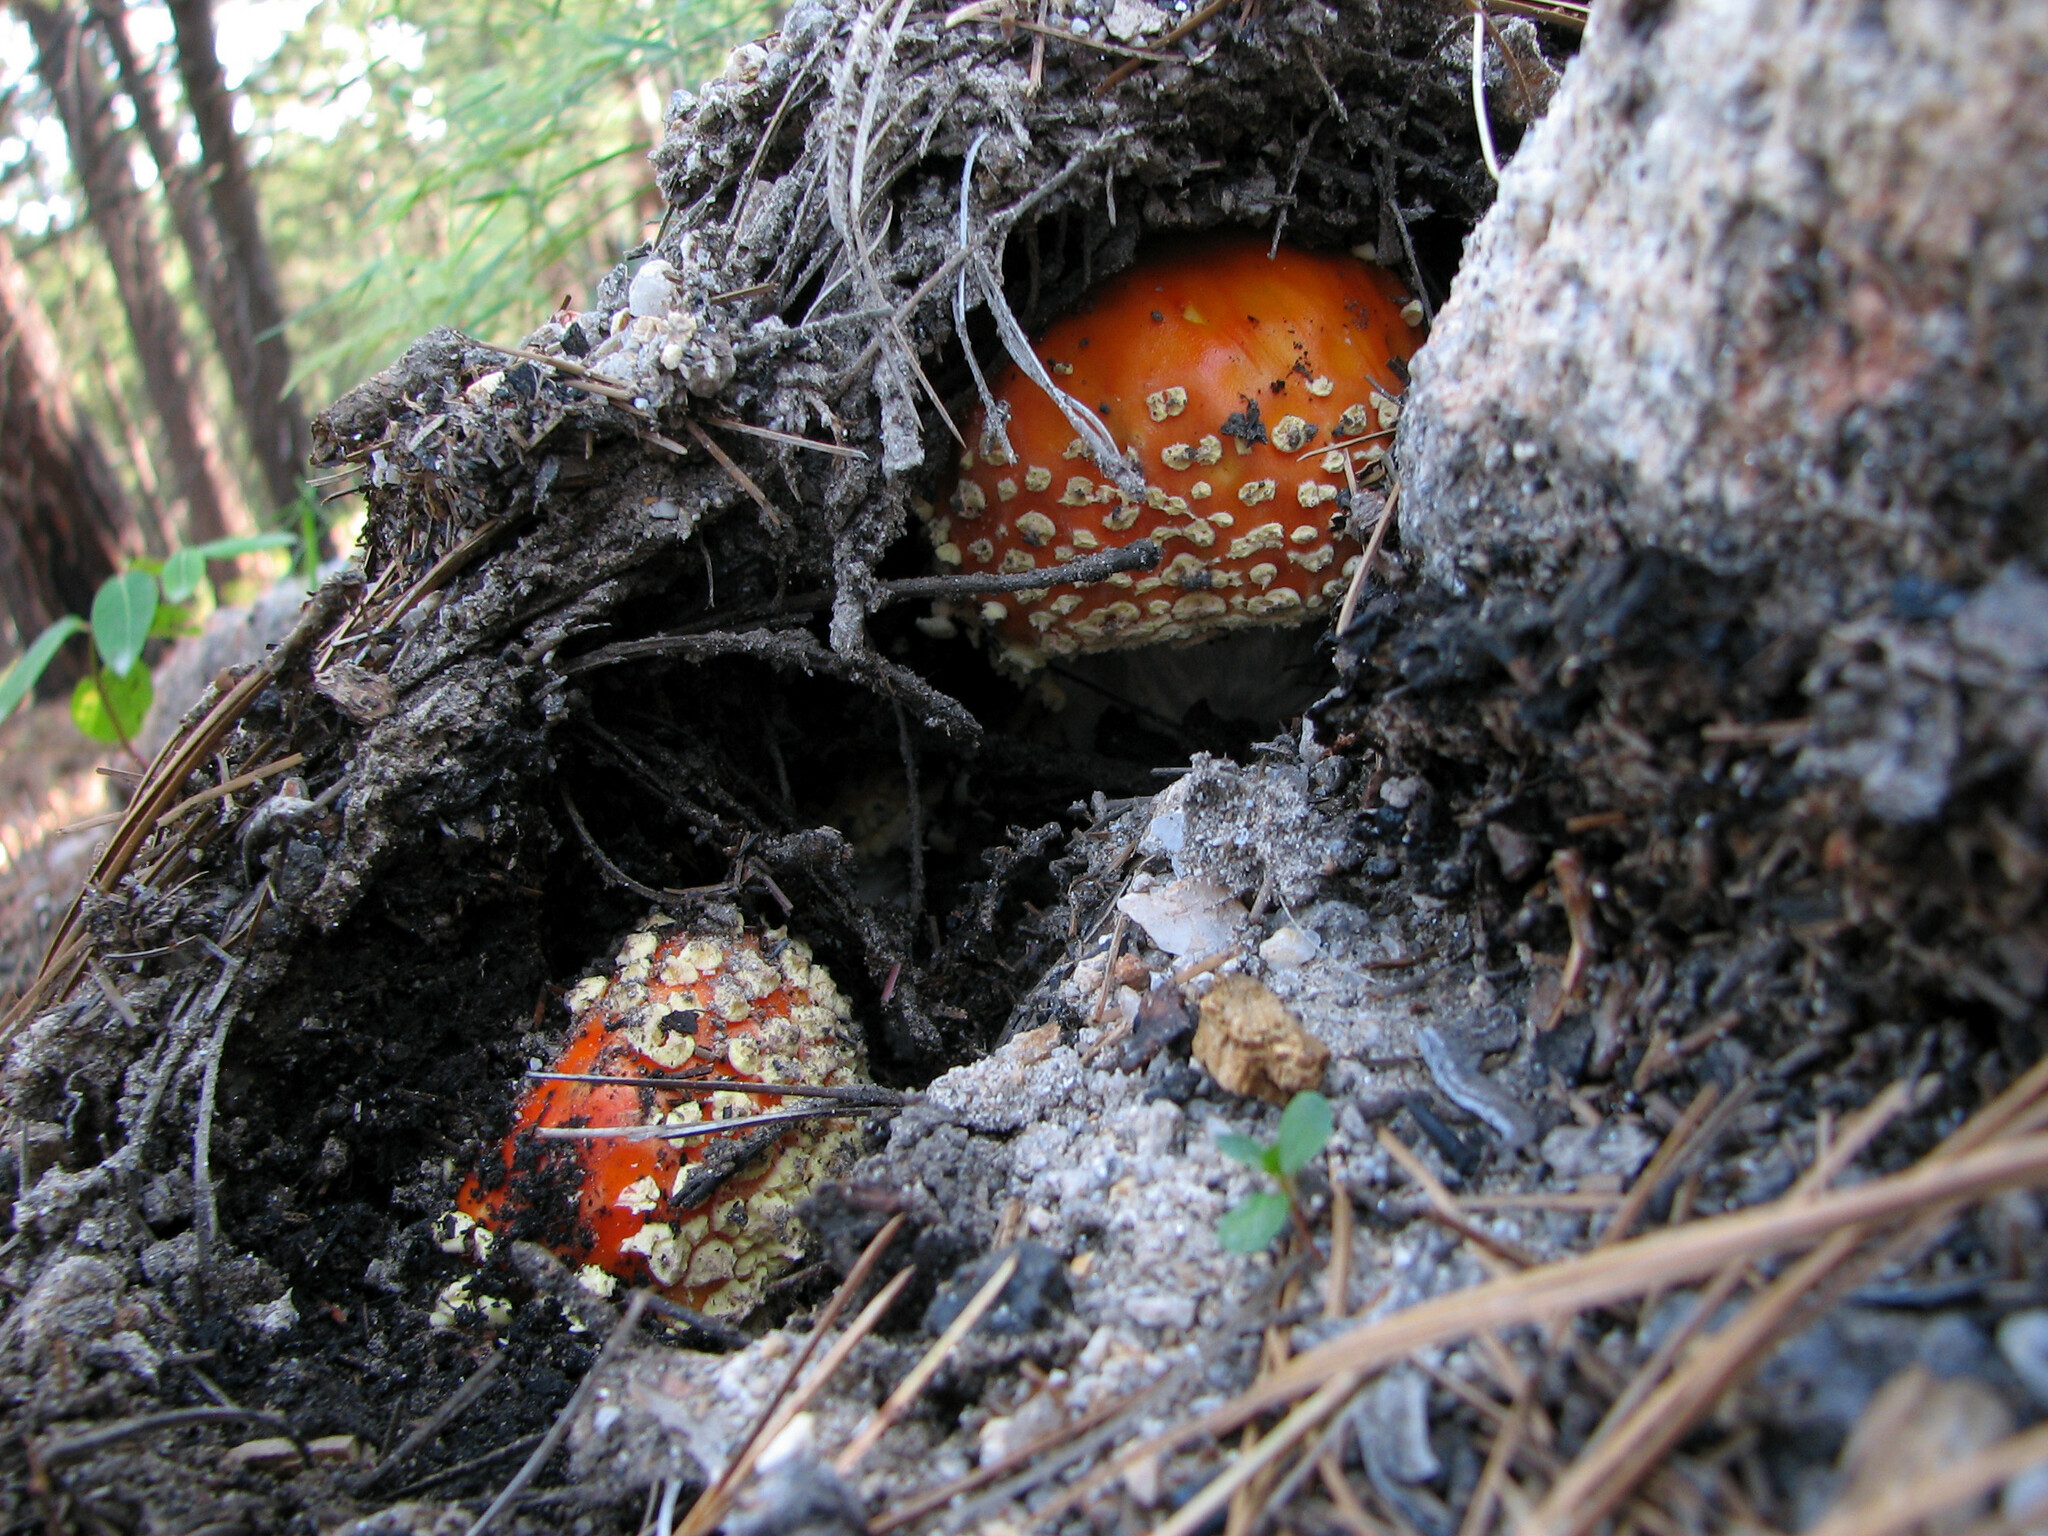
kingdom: Fungi
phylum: Basidiomycota
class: Agaricomycetes
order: Agaricales
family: Amanitaceae
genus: Amanita
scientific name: Amanita muscaria
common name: Fly agaric
